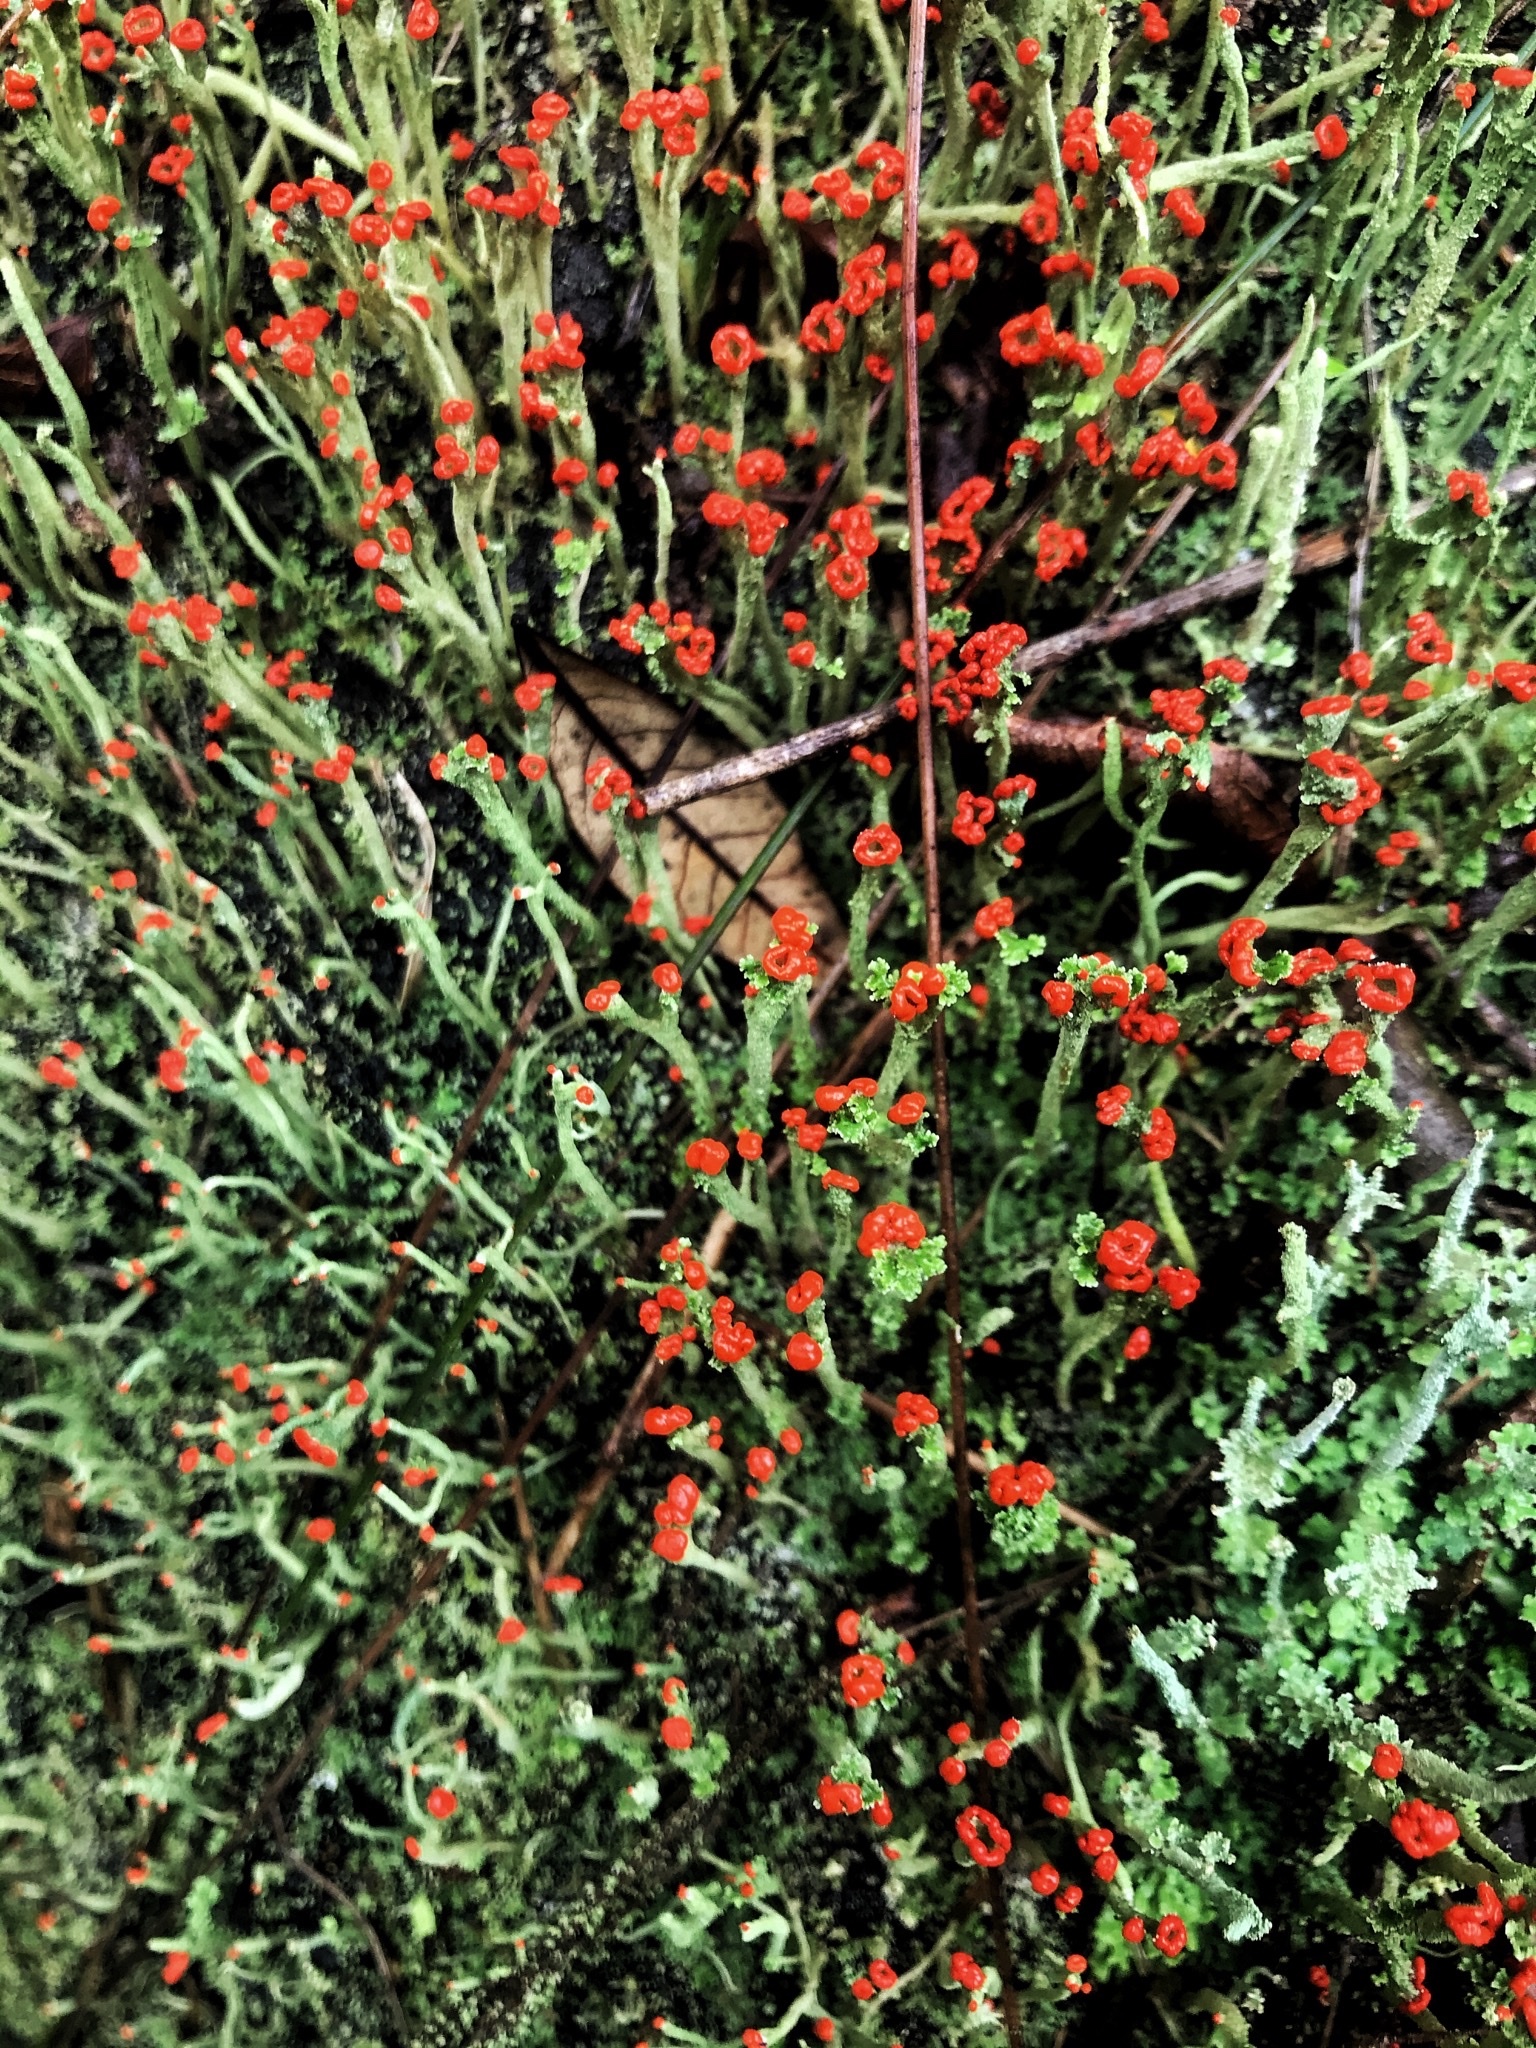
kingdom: Fungi
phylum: Ascomycota
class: Lecanoromycetes
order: Lecanorales
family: Cladoniaceae
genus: Cladonia
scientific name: Cladonia macilenta
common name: Lipstick powderhorn
